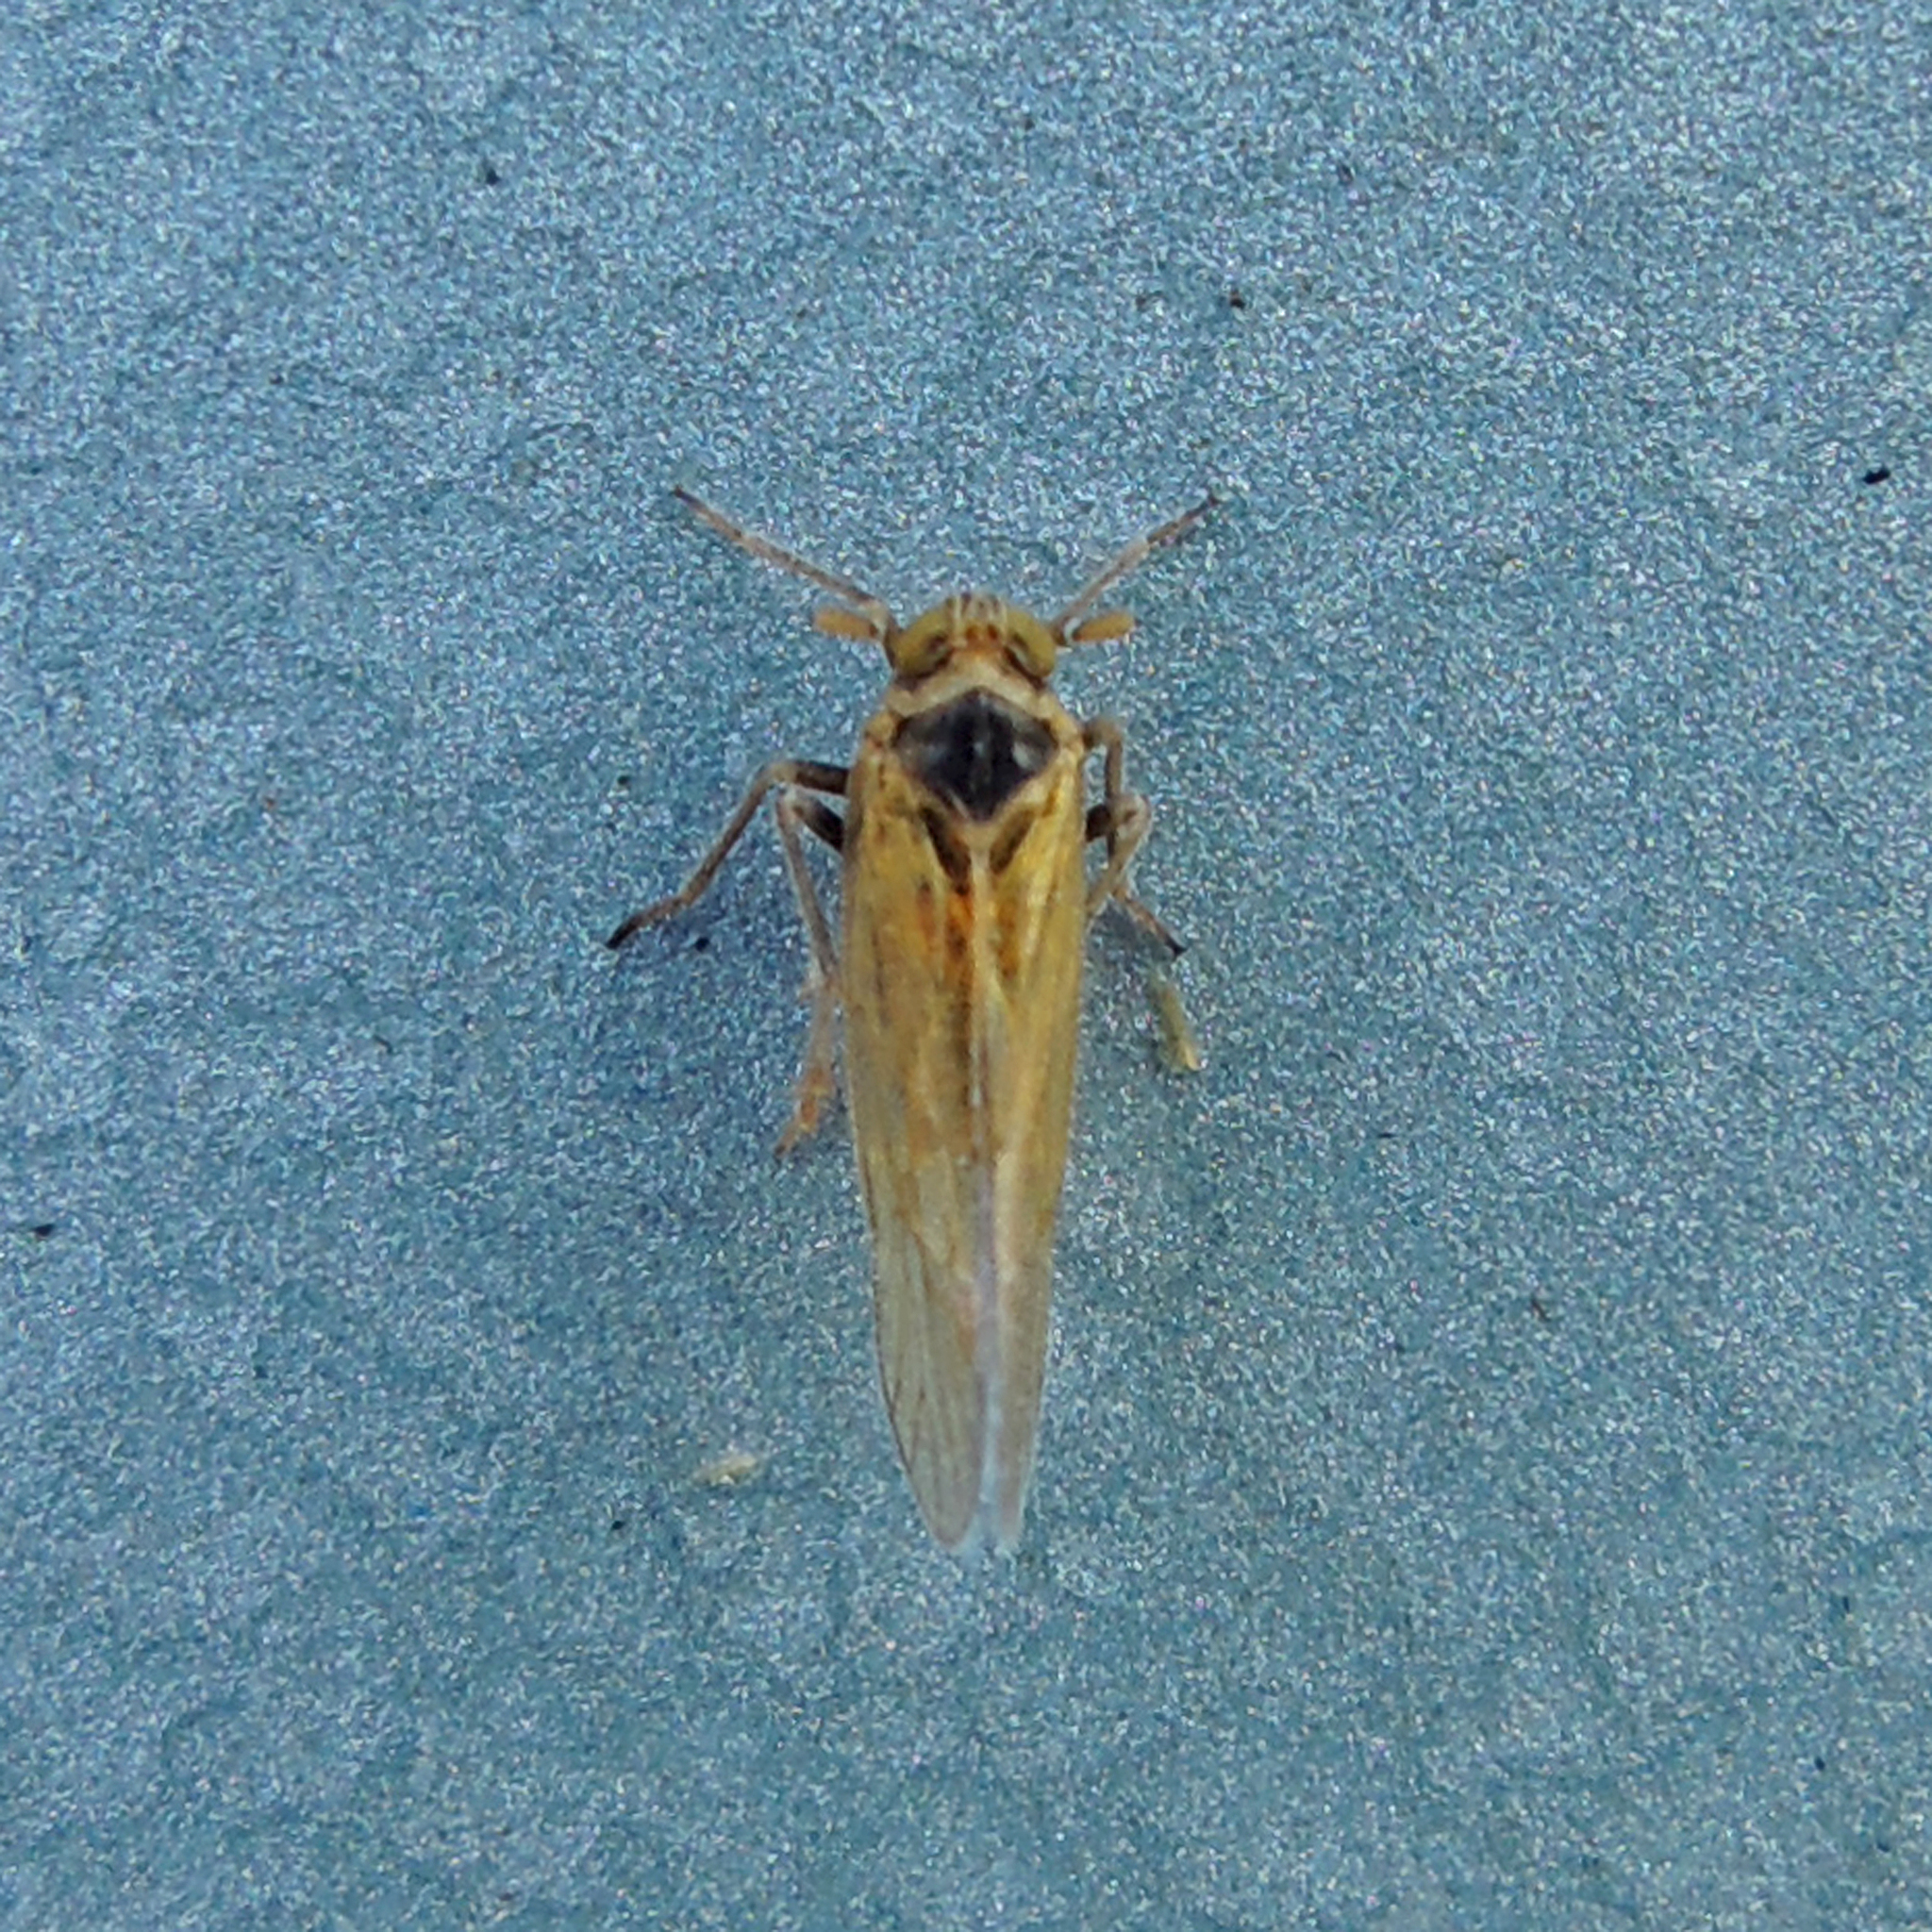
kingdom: Animalia
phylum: Arthropoda
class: Insecta
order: Hemiptera
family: Delphacidae
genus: Javesella
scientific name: Javesella pellucida
